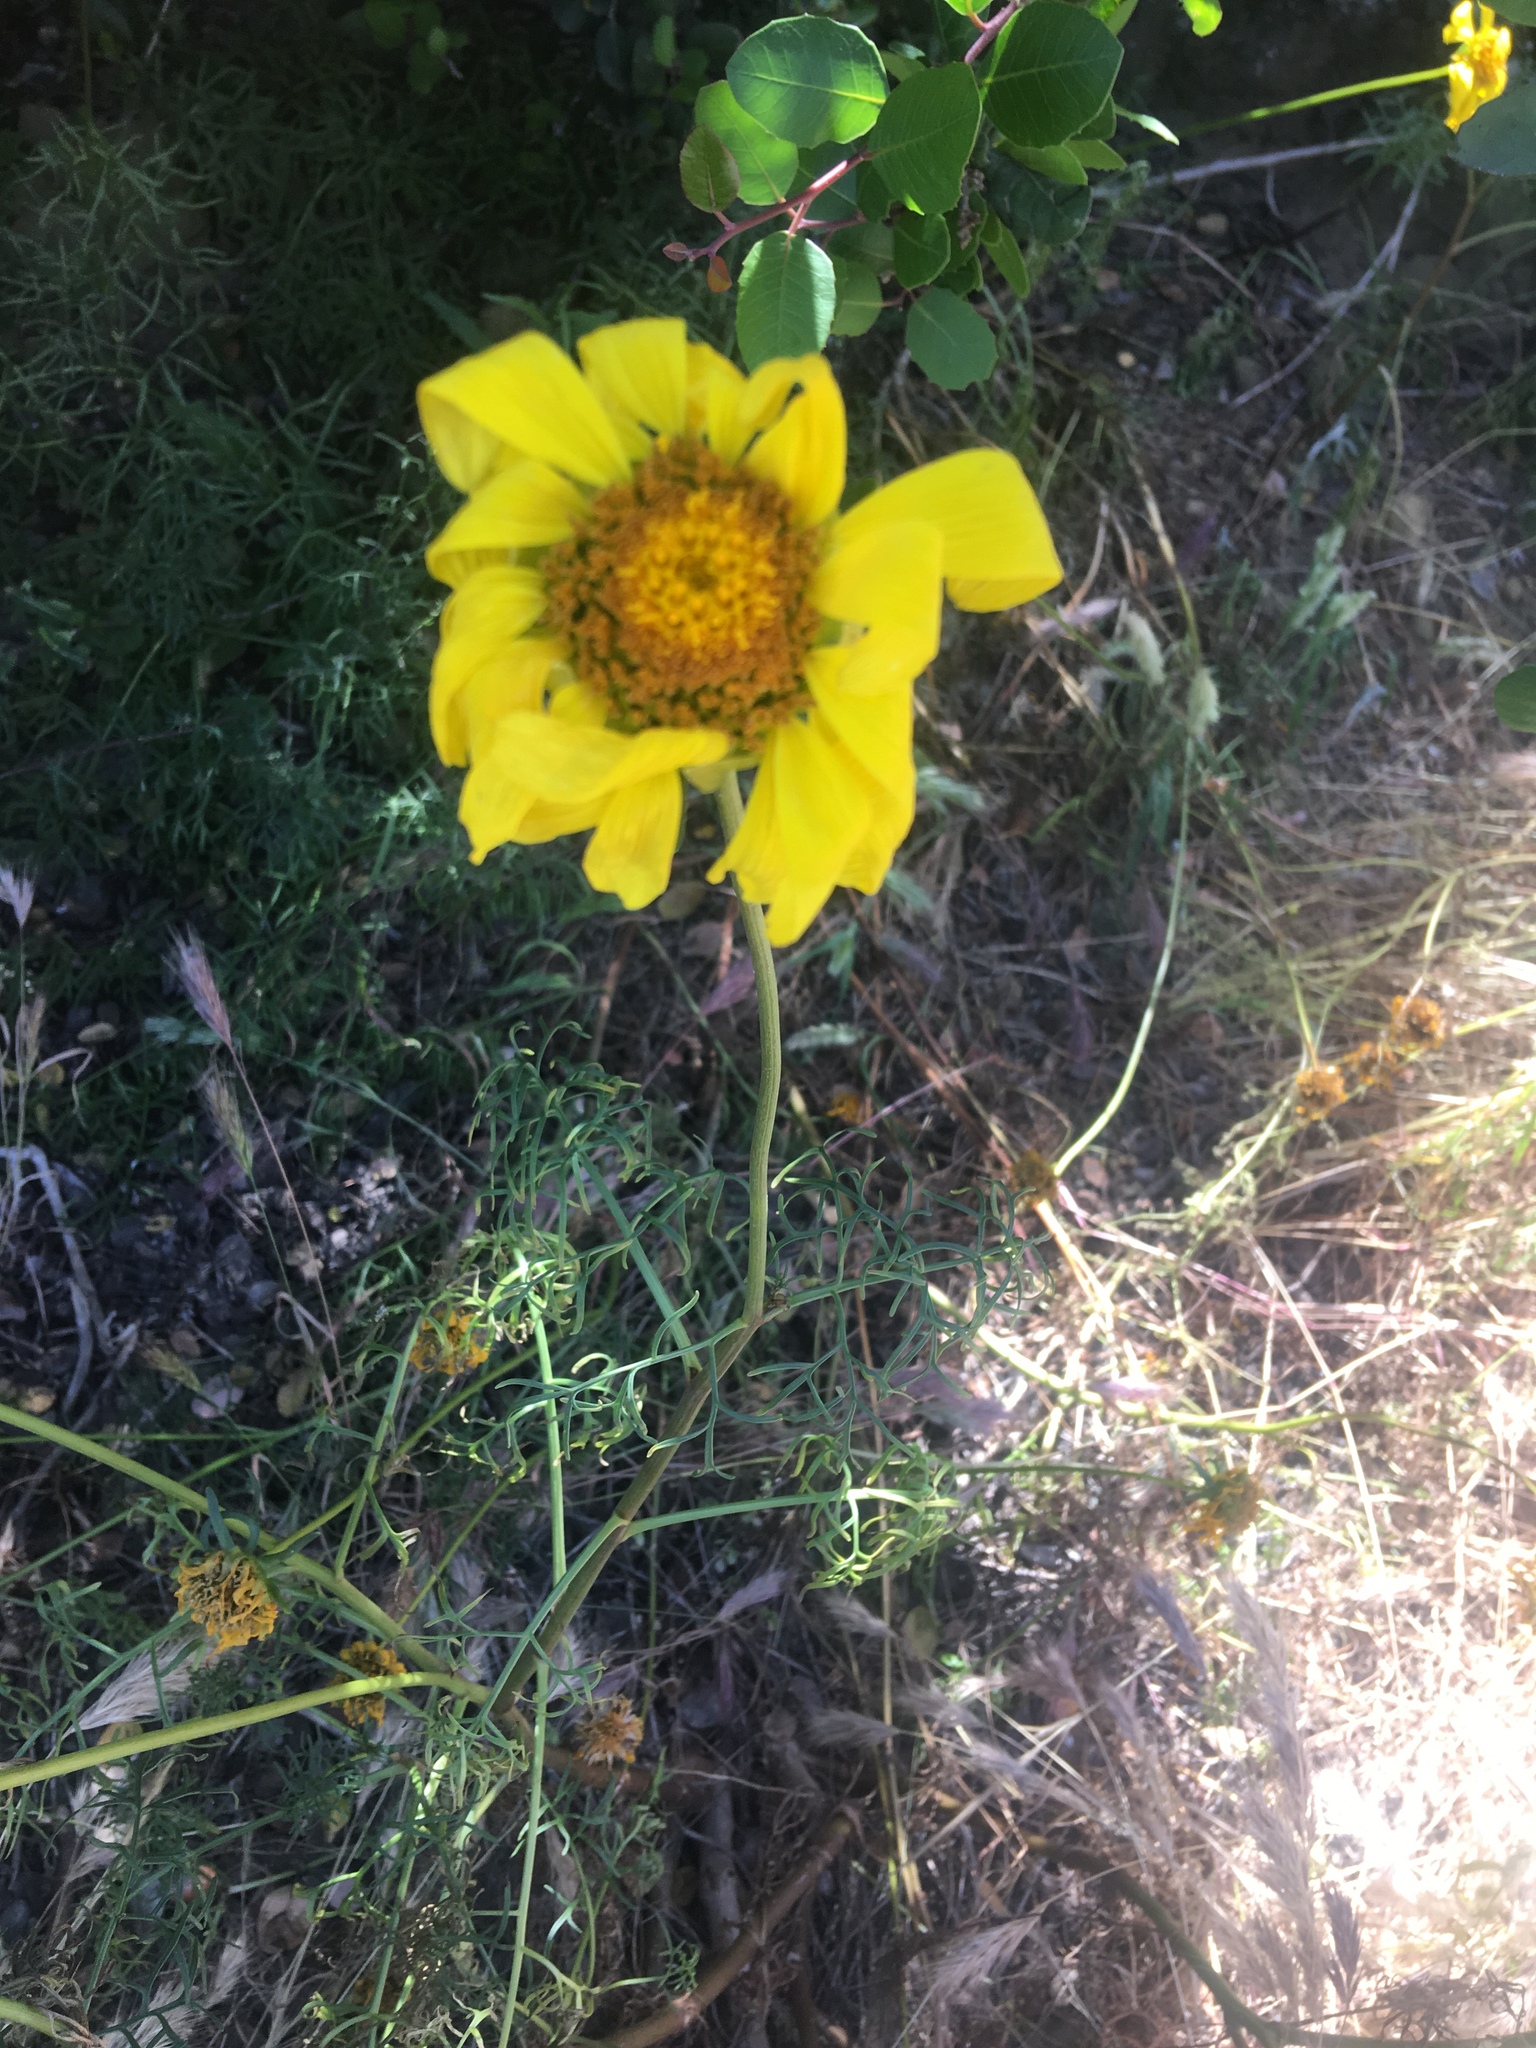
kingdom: Plantae
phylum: Tracheophyta
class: Magnoliopsida
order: Asterales
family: Asteraceae
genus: Coreopsis
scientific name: Coreopsis maritima
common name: Sea-dahlia
